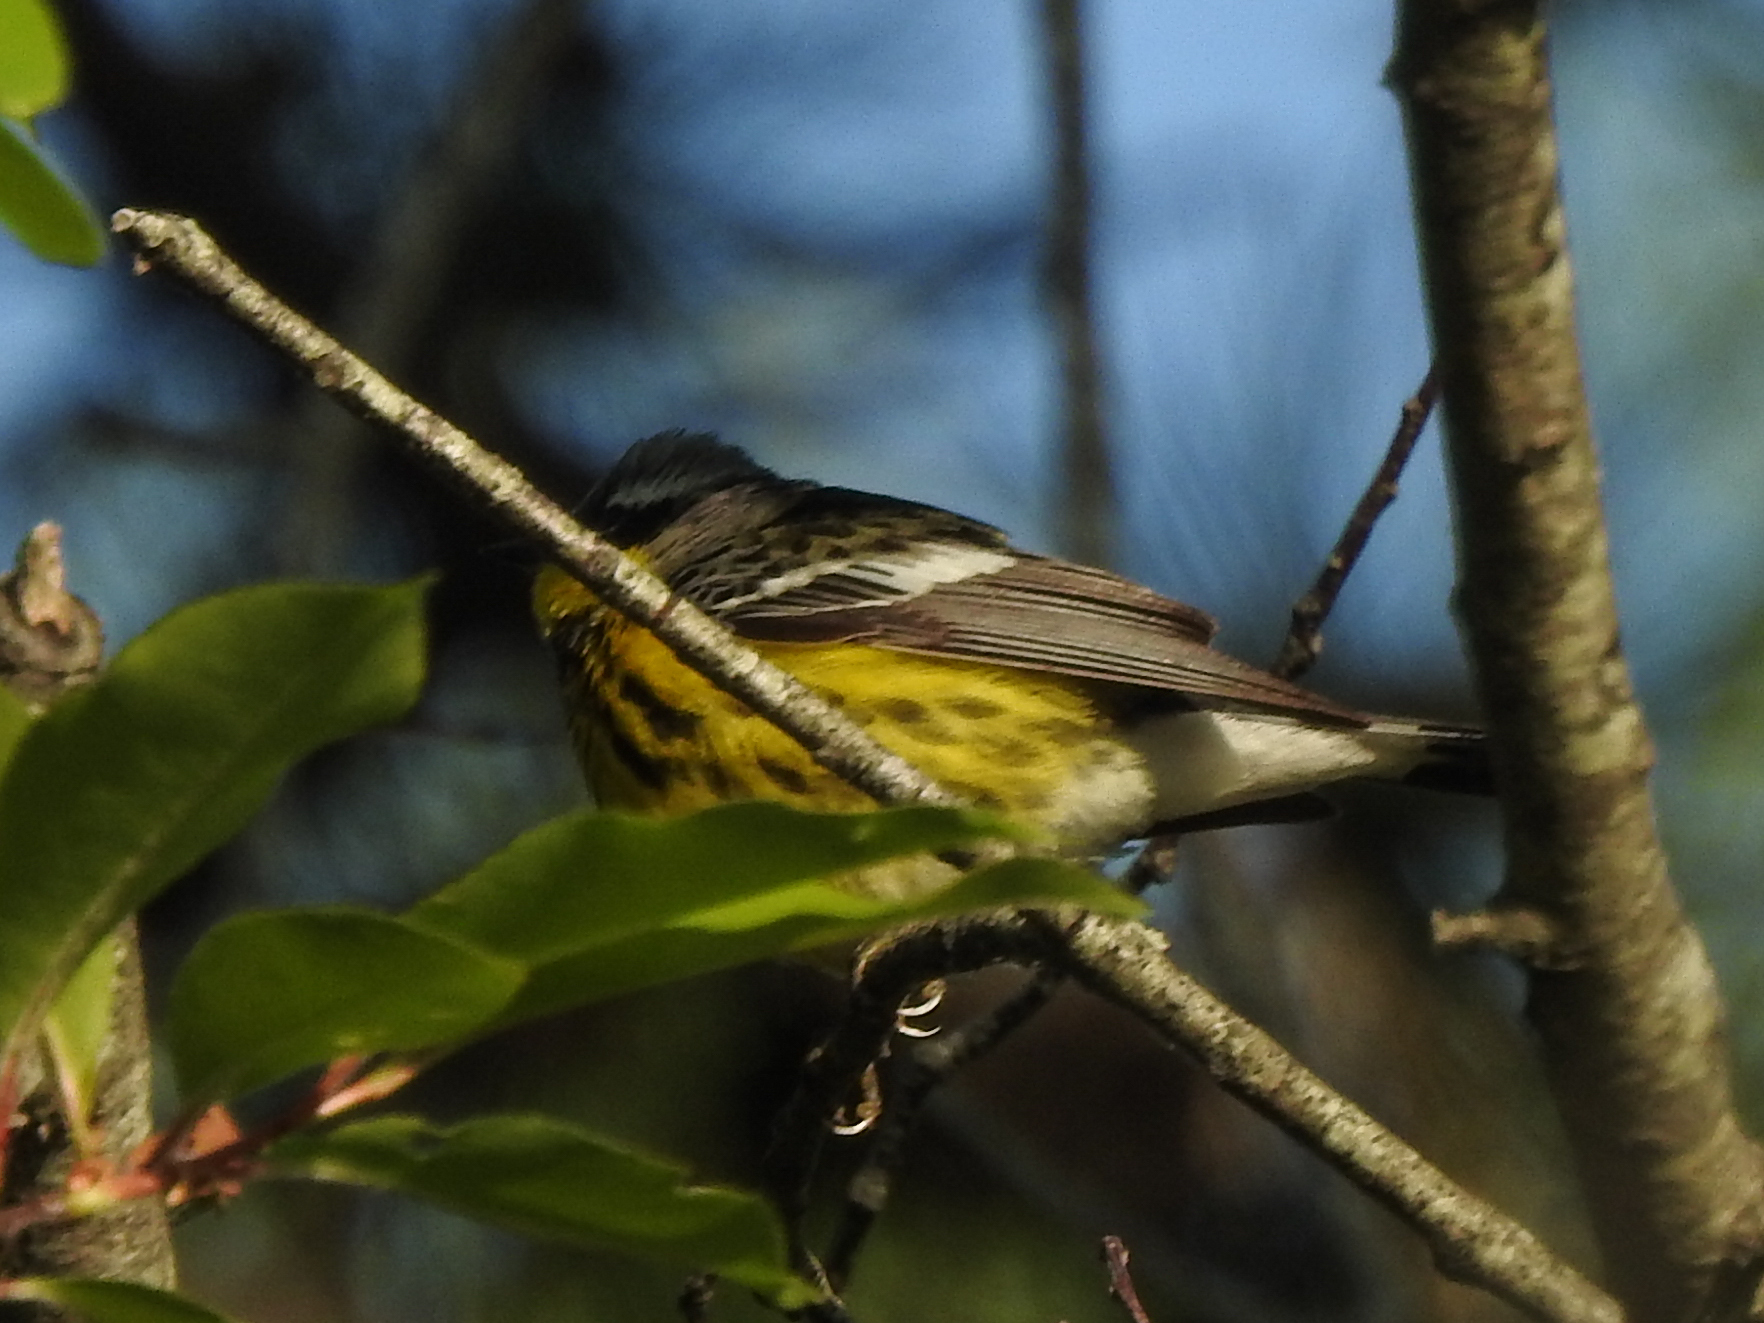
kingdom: Animalia
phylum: Chordata
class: Aves
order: Passeriformes
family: Parulidae
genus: Setophaga
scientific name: Setophaga magnolia
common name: Magnolia warbler
